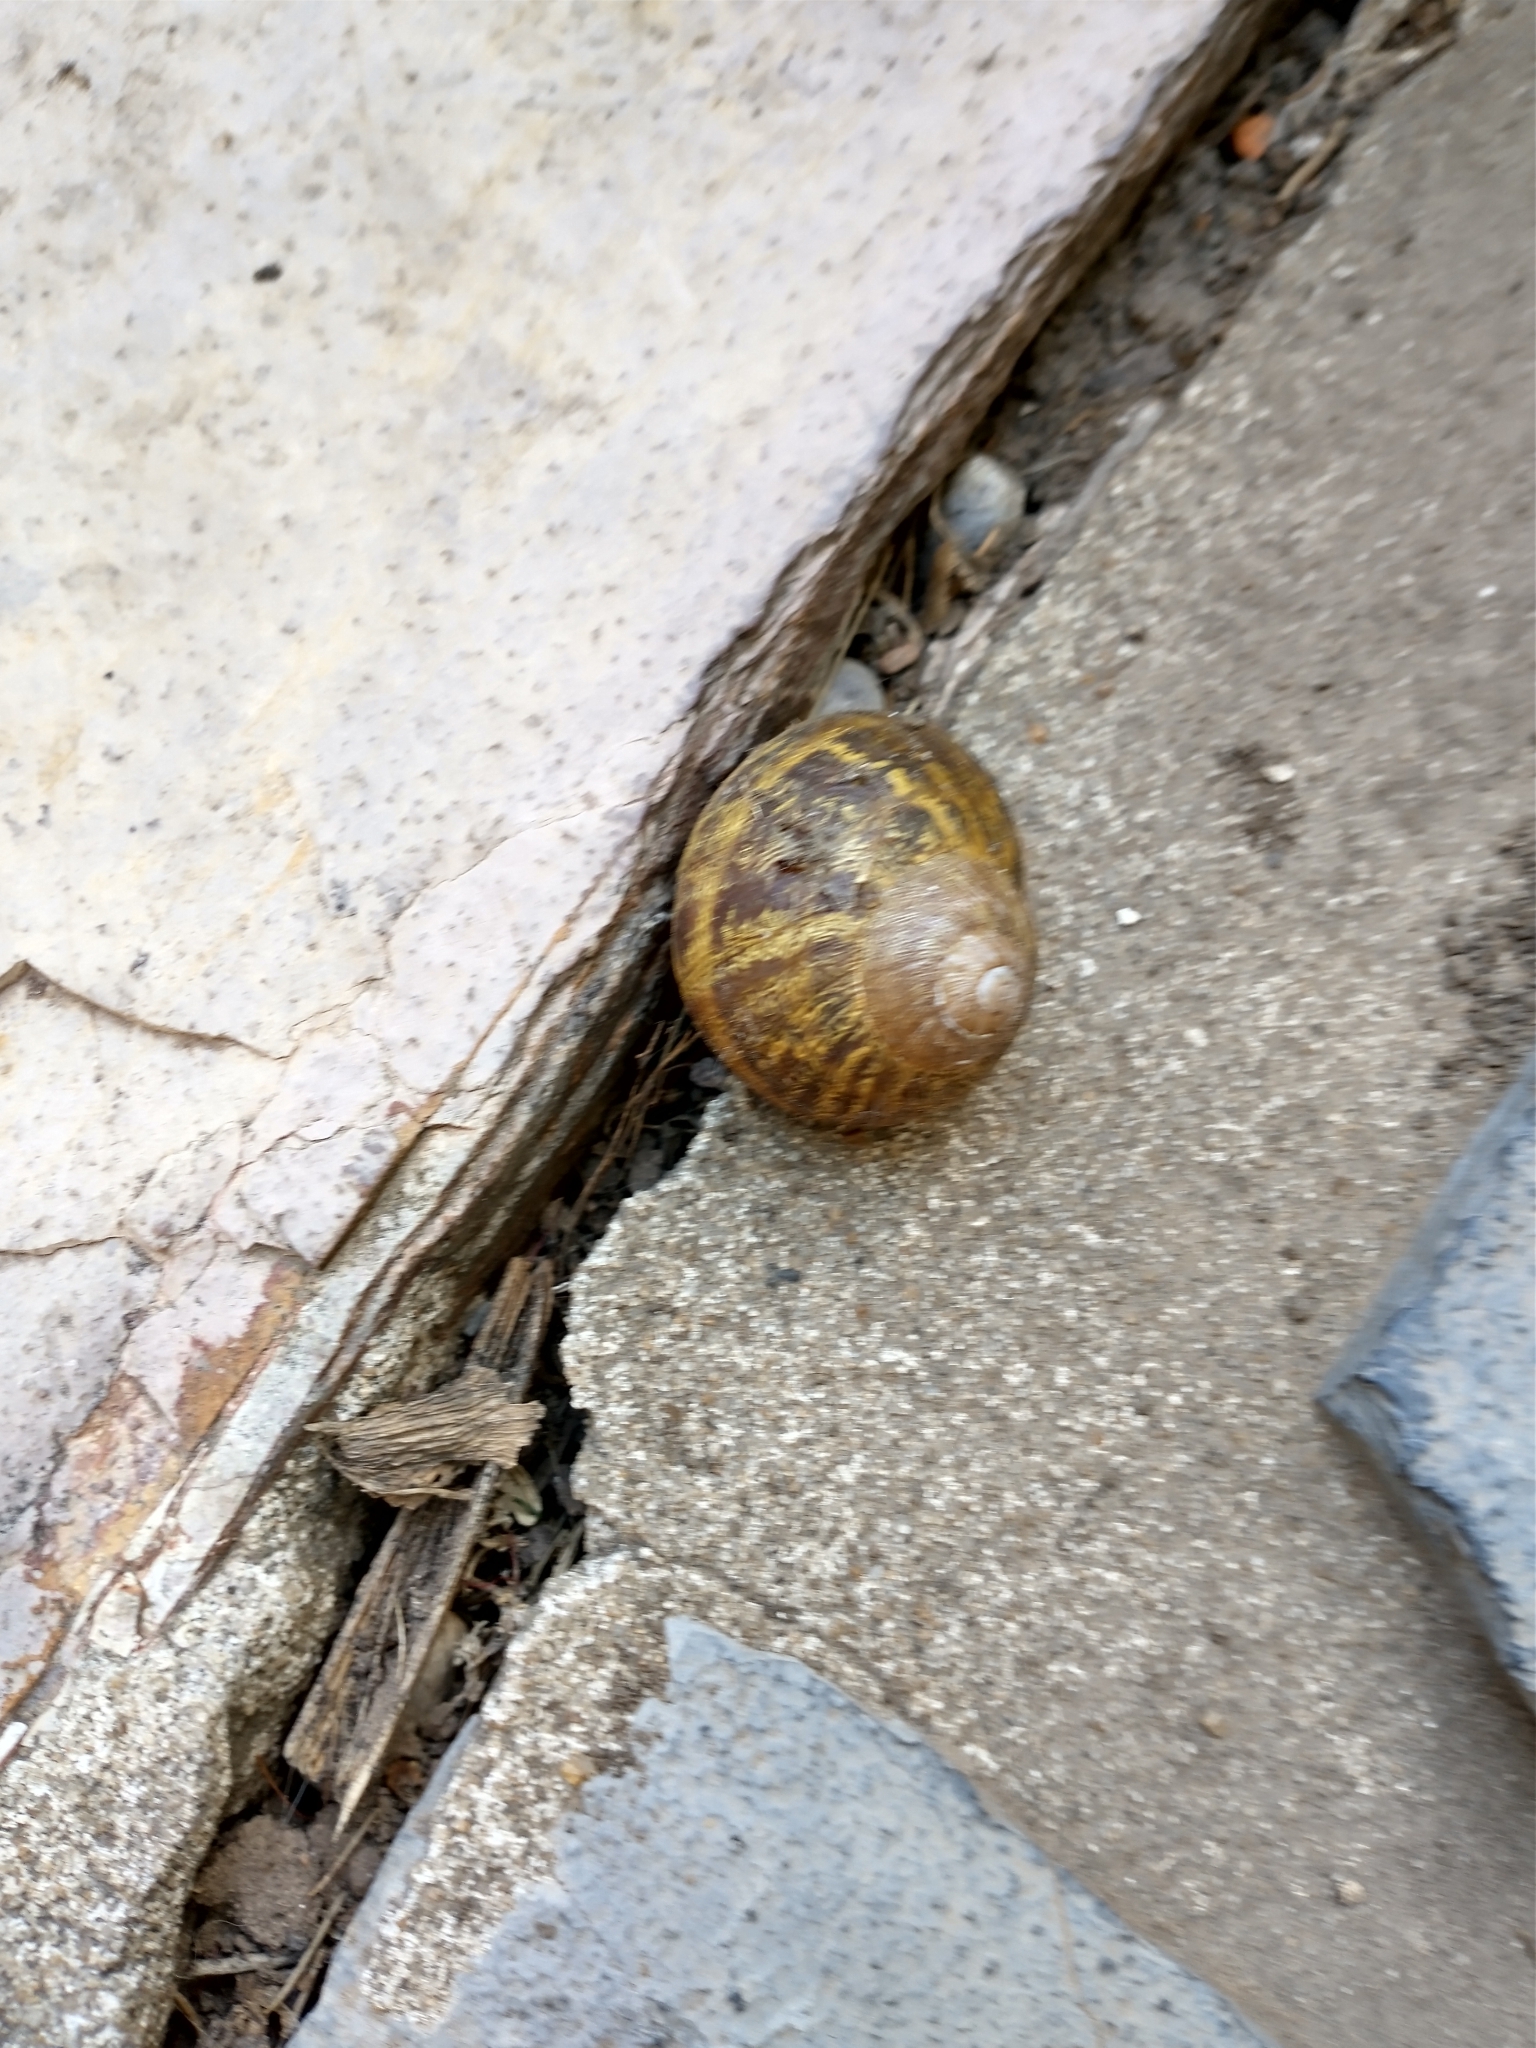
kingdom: Animalia
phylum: Mollusca
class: Gastropoda
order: Stylommatophora
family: Helicidae
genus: Cornu
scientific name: Cornu aspersum
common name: Brown garden snail
